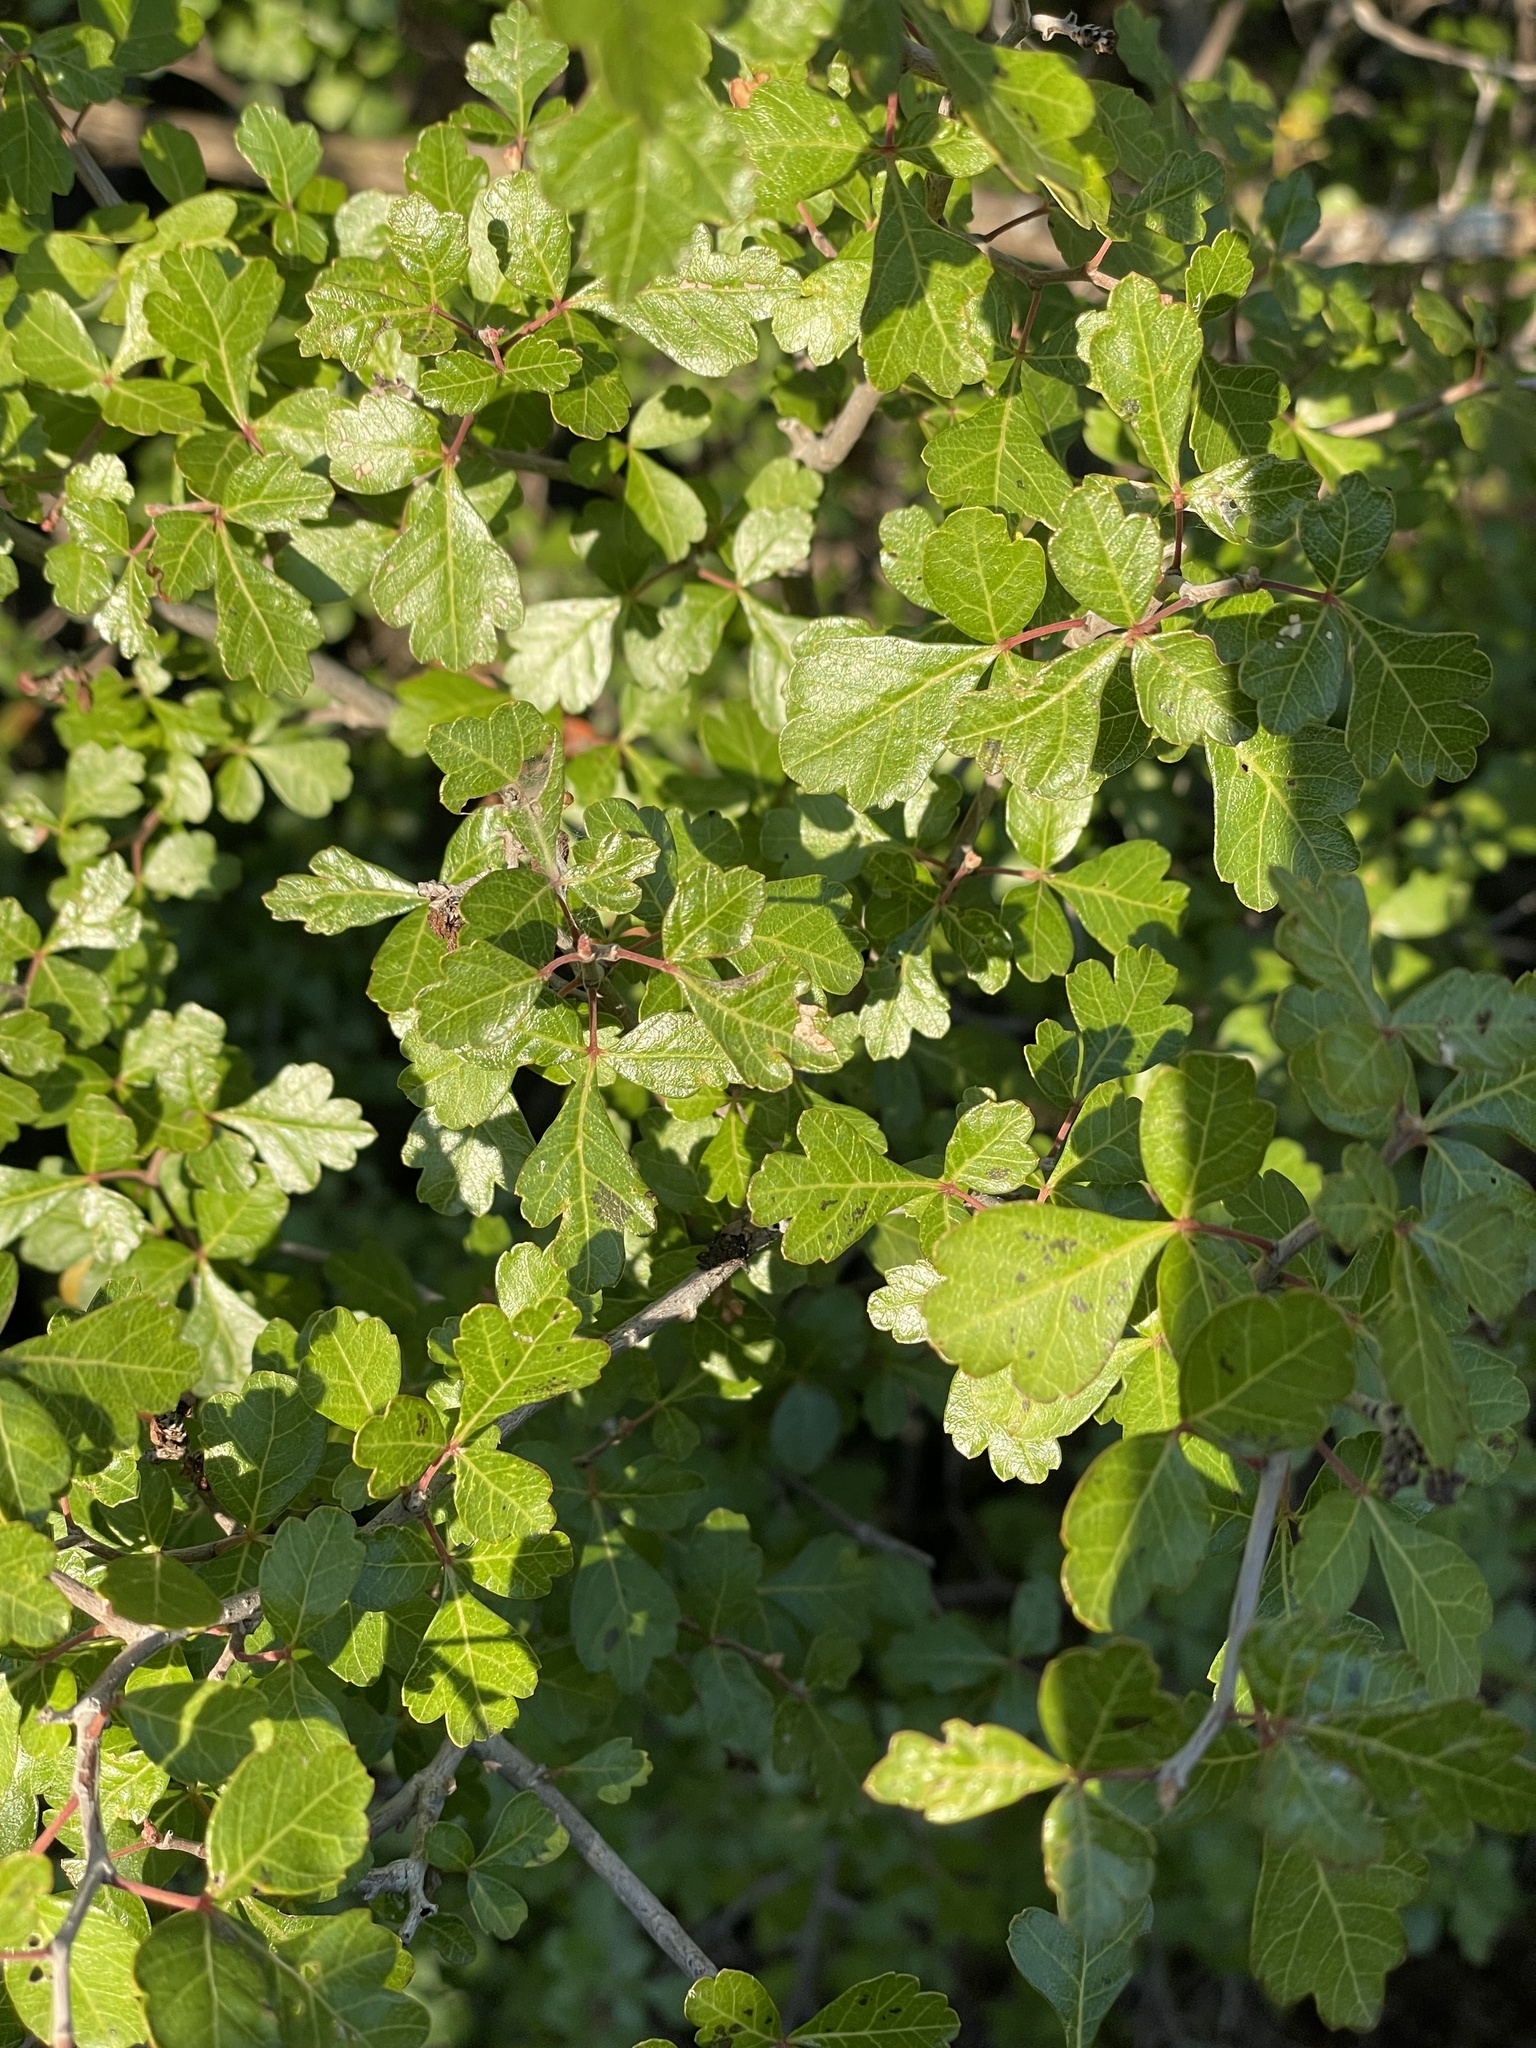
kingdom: Plantae
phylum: Tracheophyta
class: Magnoliopsida
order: Sapindales
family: Anacardiaceae
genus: Rhus
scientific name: Rhus aromatica
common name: Aromatic sumac
